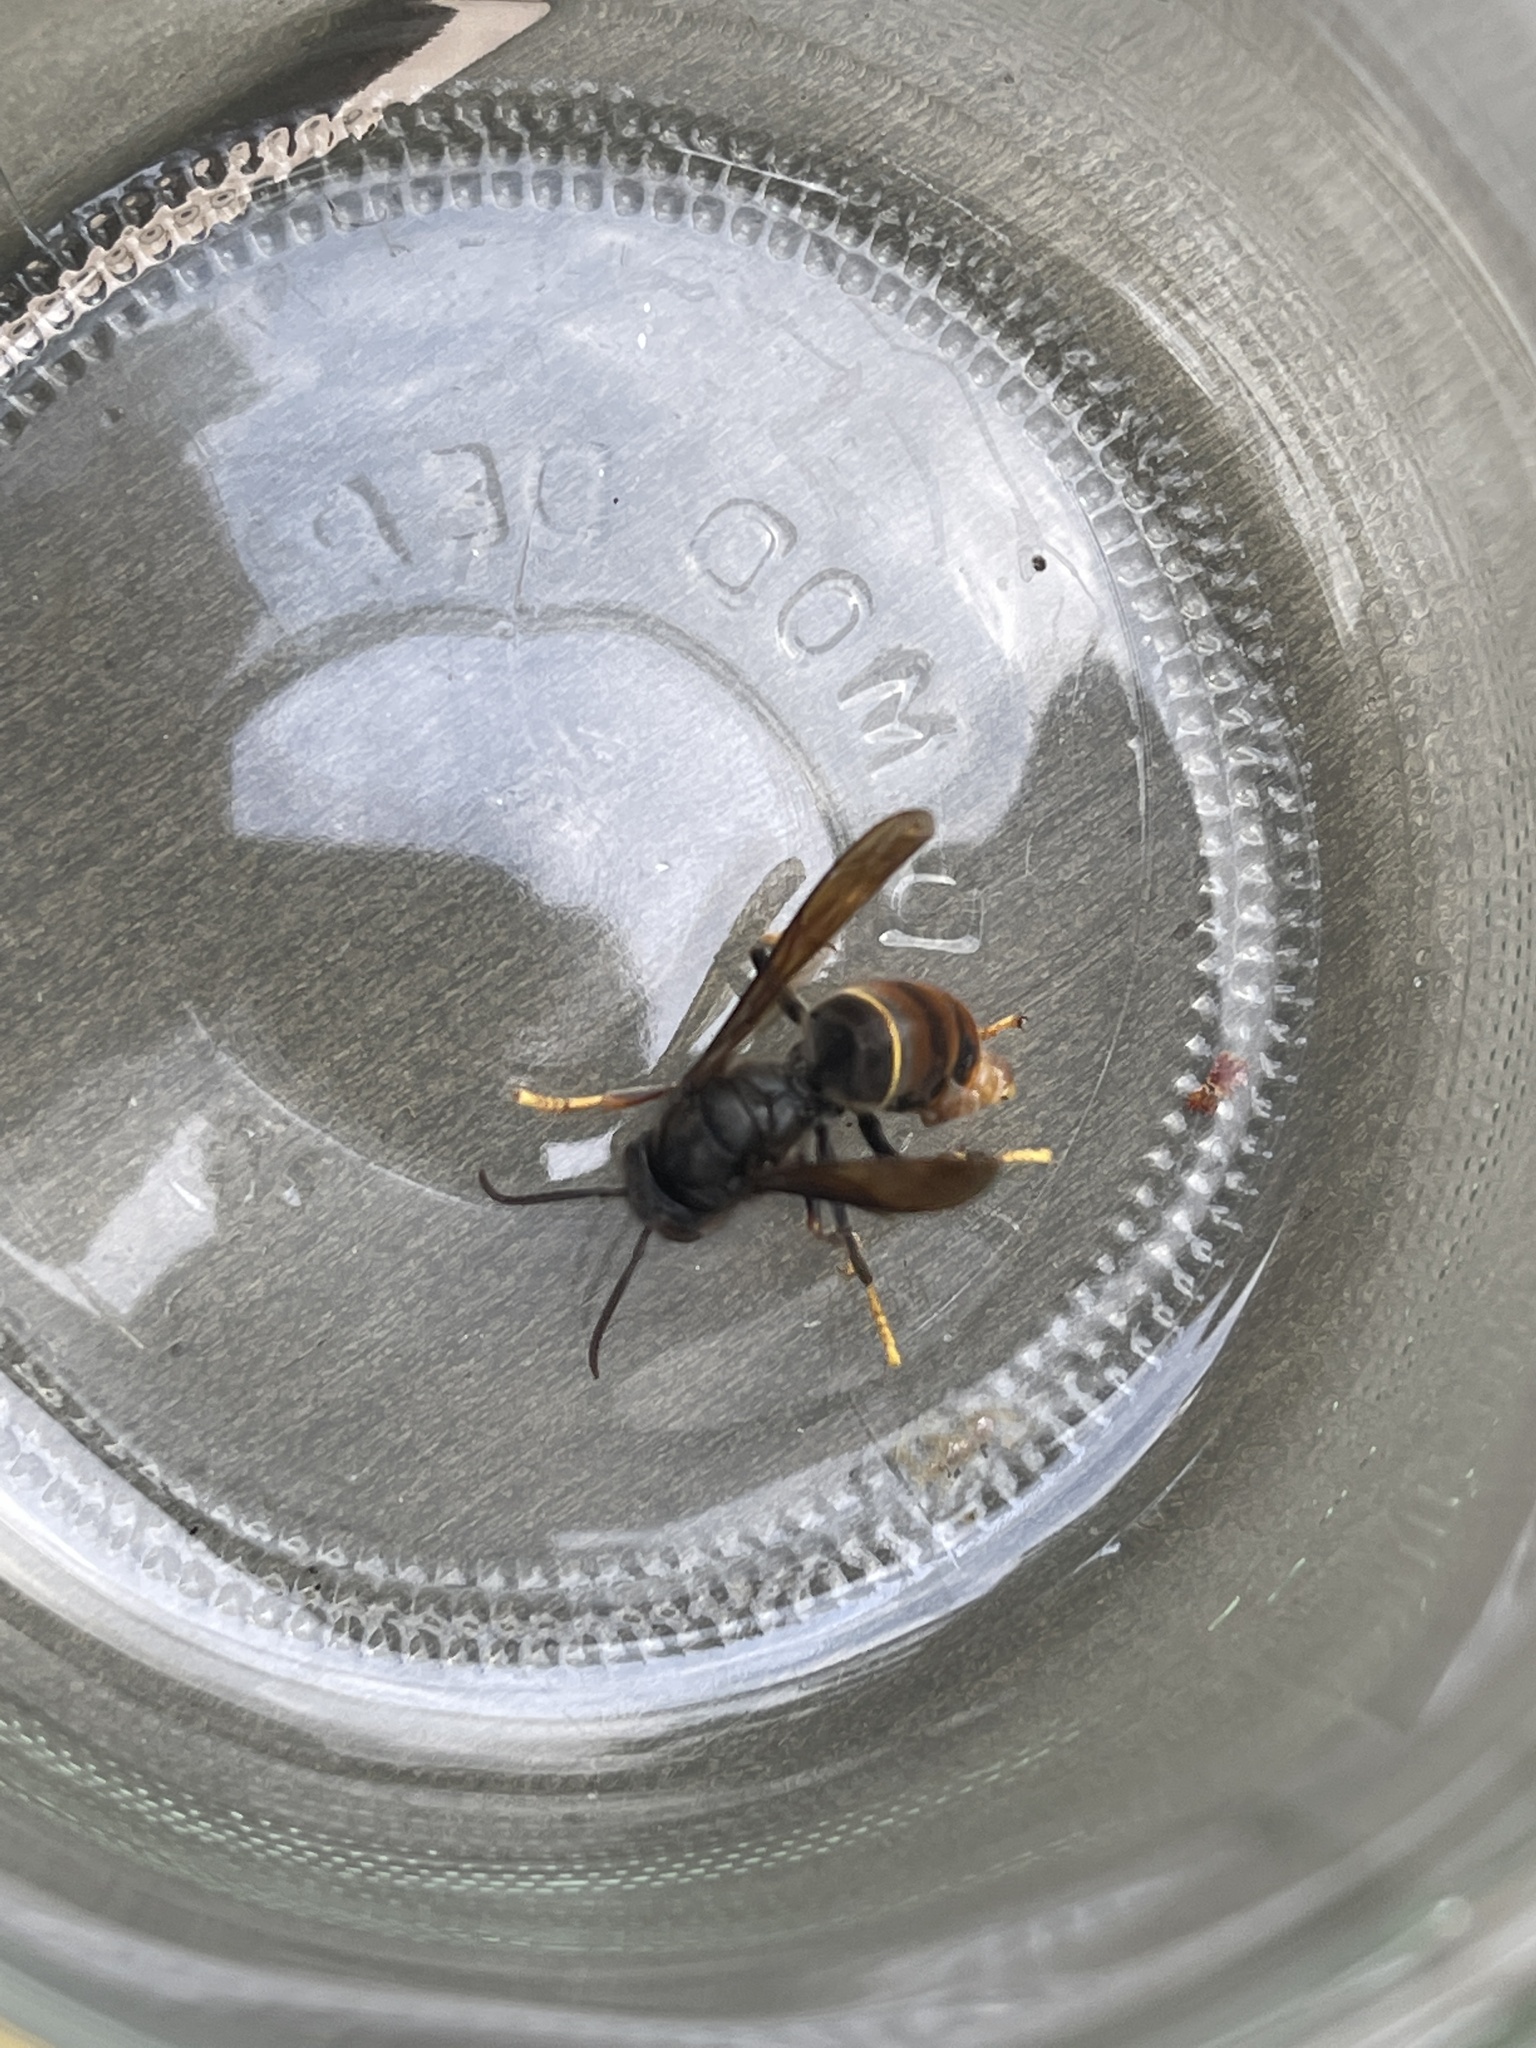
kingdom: Animalia
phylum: Arthropoda
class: Insecta
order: Hymenoptera
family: Vespidae
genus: Vespa
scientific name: Vespa velutina
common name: Asian hornet
